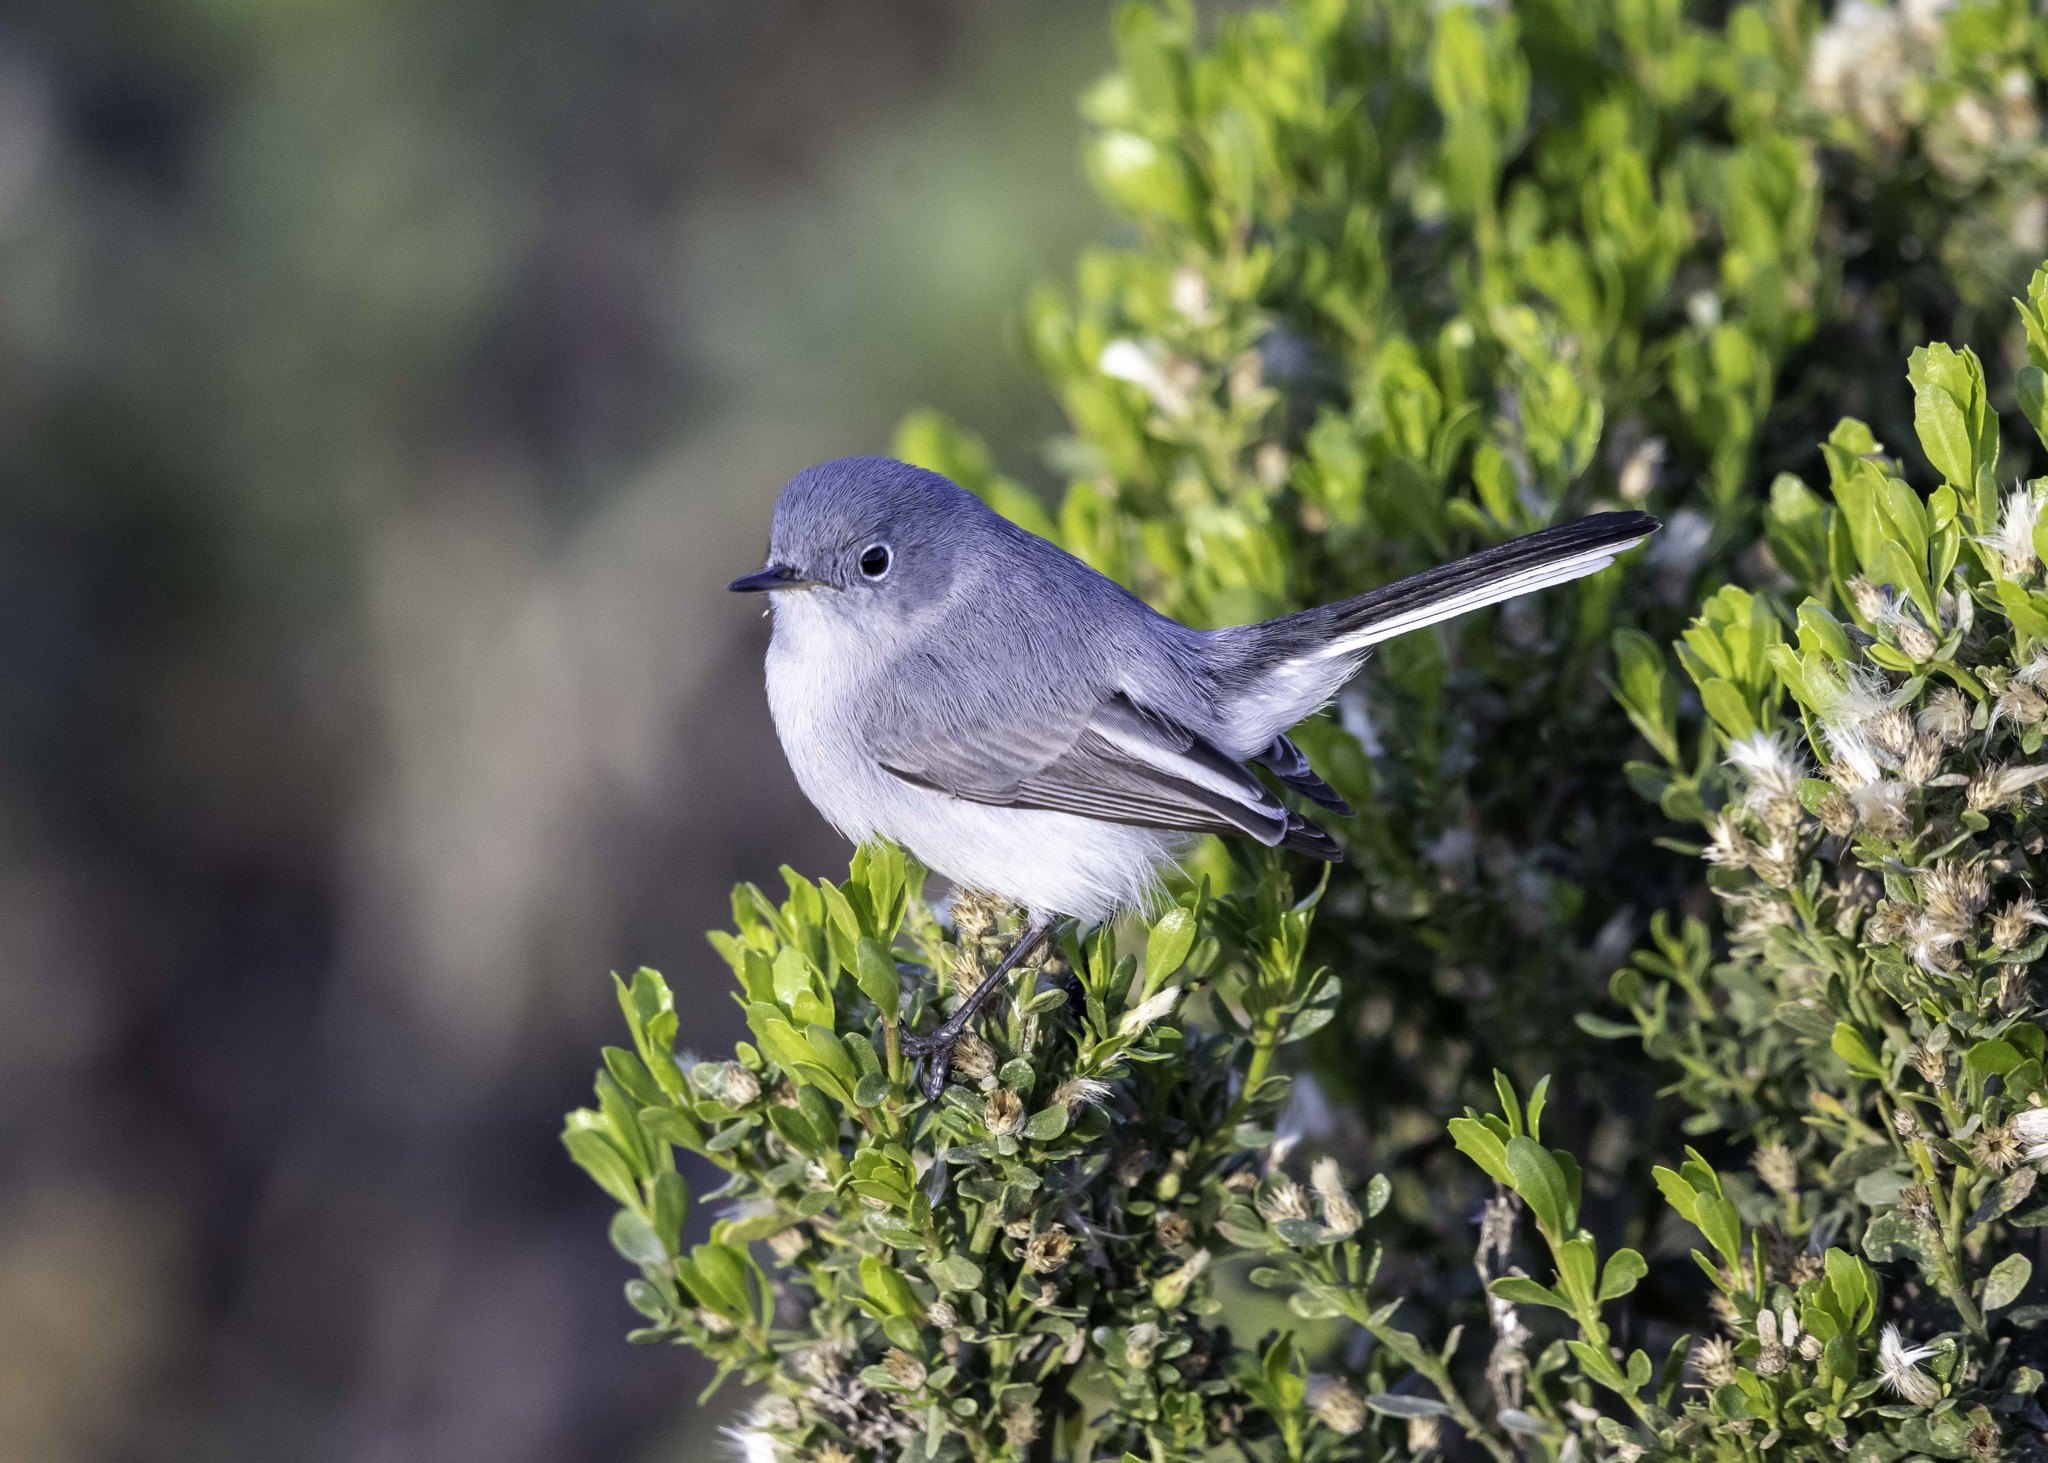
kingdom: Animalia
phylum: Chordata
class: Aves
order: Passeriformes
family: Polioptilidae
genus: Polioptila
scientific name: Polioptila caerulea
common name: Blue-gray gnatcatcher
